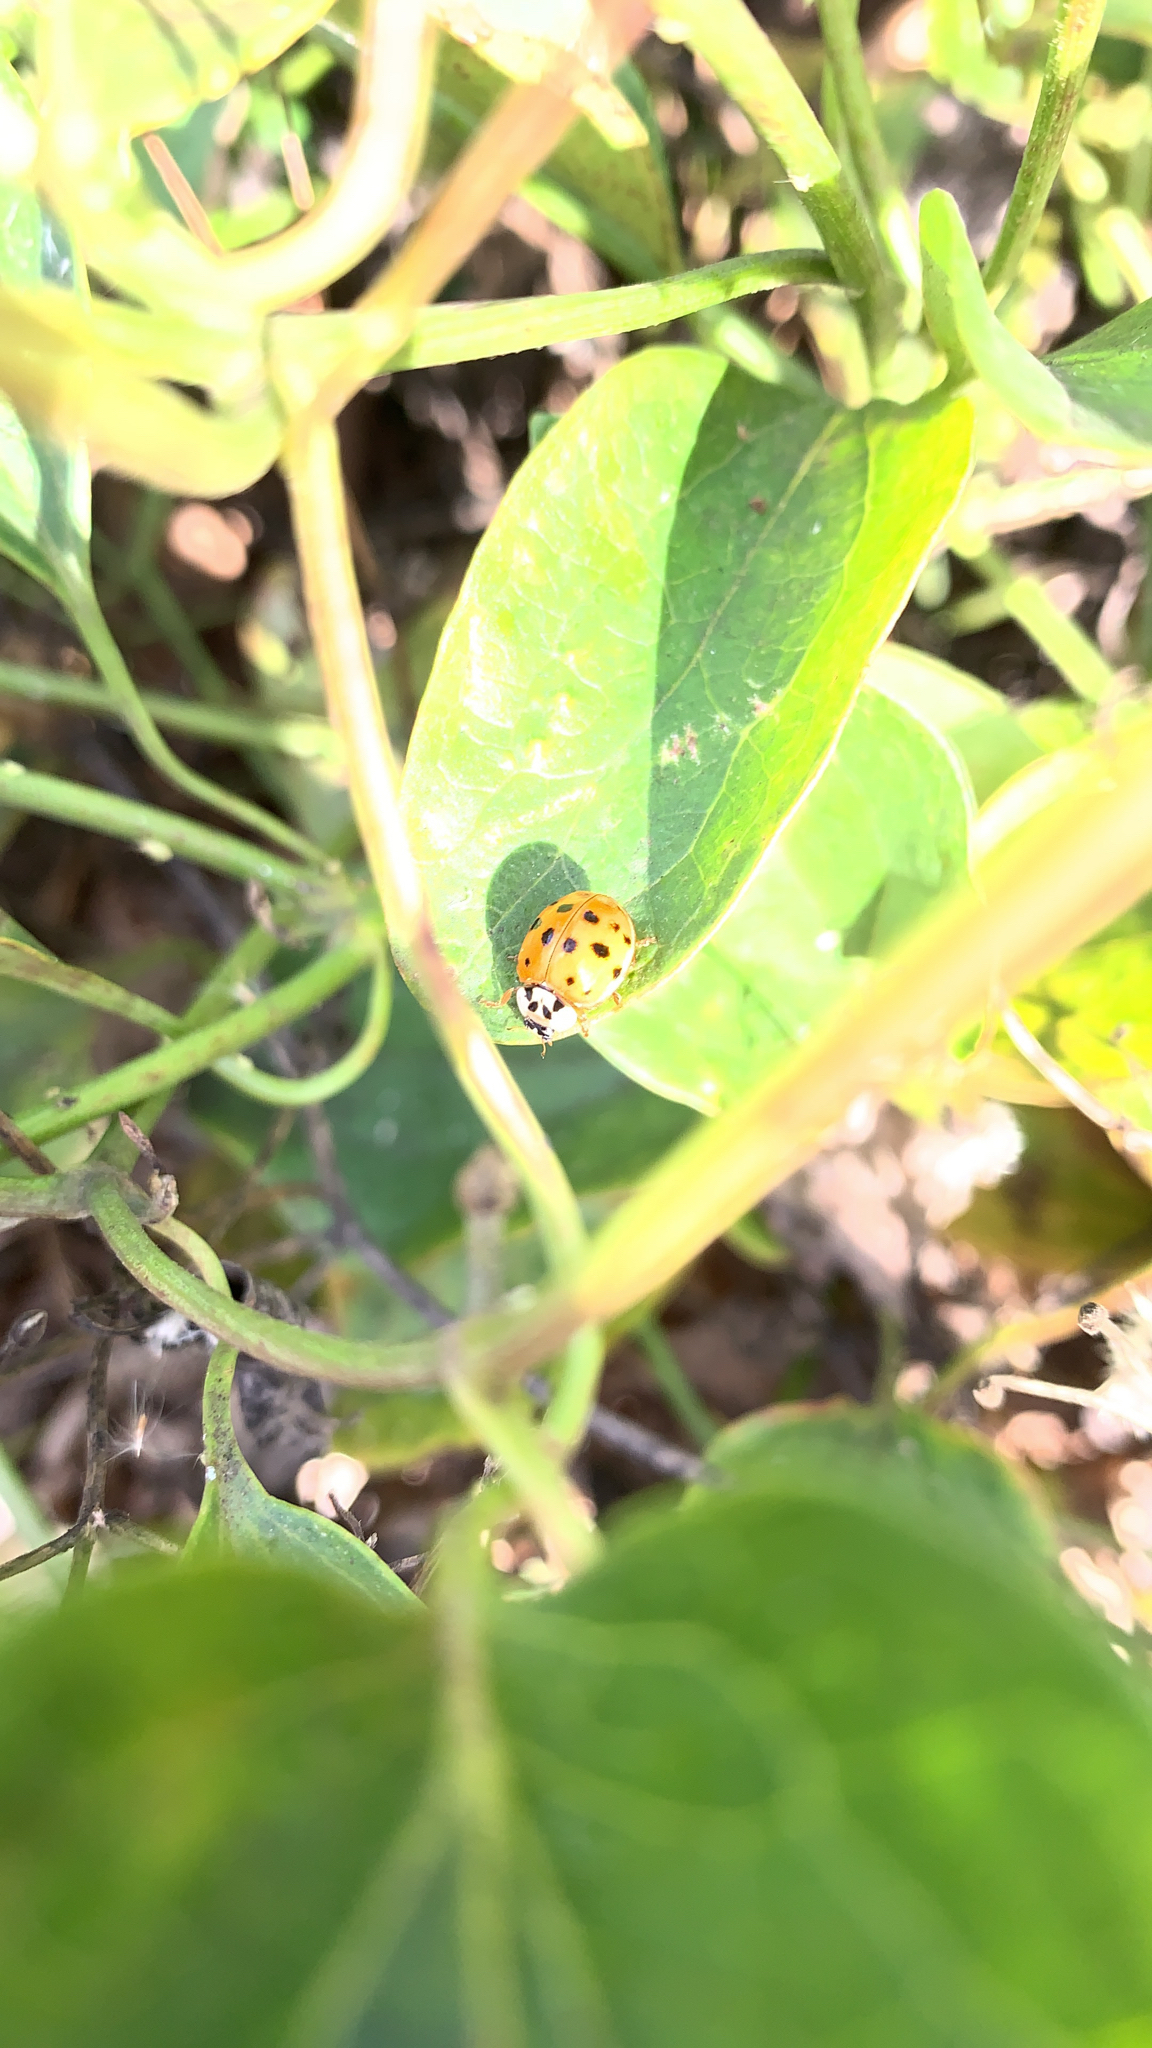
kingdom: Animalia
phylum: Arthropoda
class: Insecta
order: Coleoptera
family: Coccinellidae
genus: Harmonia
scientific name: Harmonia axyridis
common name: Harlequin ladybird
